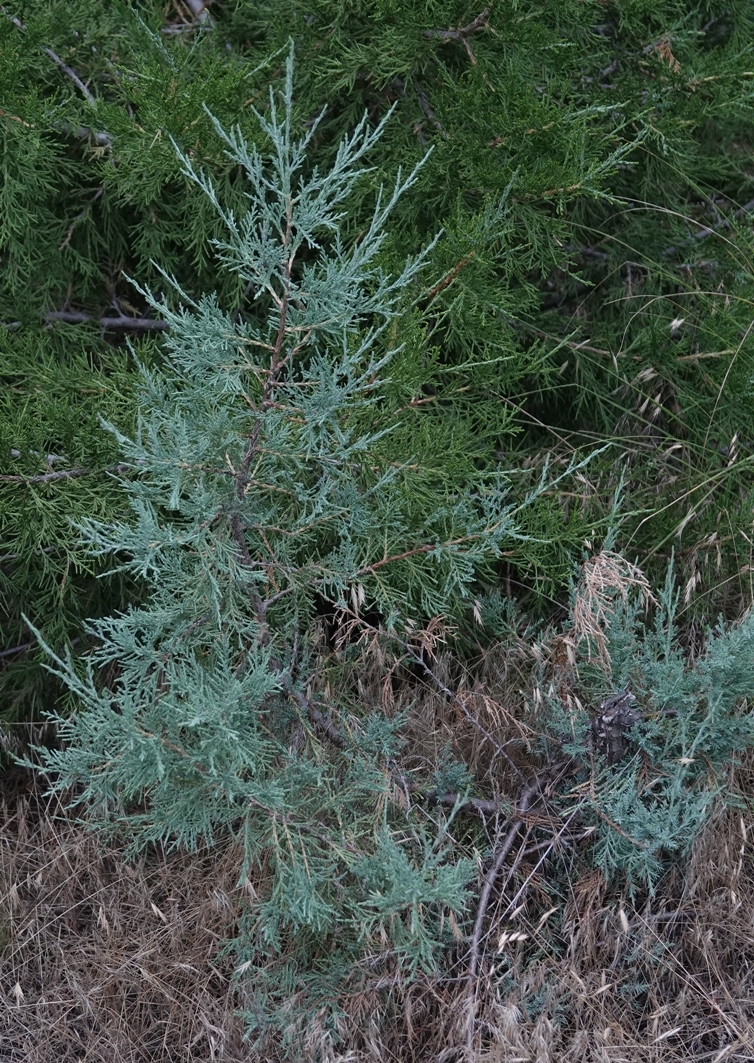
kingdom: Plantae
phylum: Tracheophyta
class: Pinopsida
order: Pinales
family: Cupressaceae
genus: Juniperus
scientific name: Juniperus scopulorum
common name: Rocky mountain juniper
